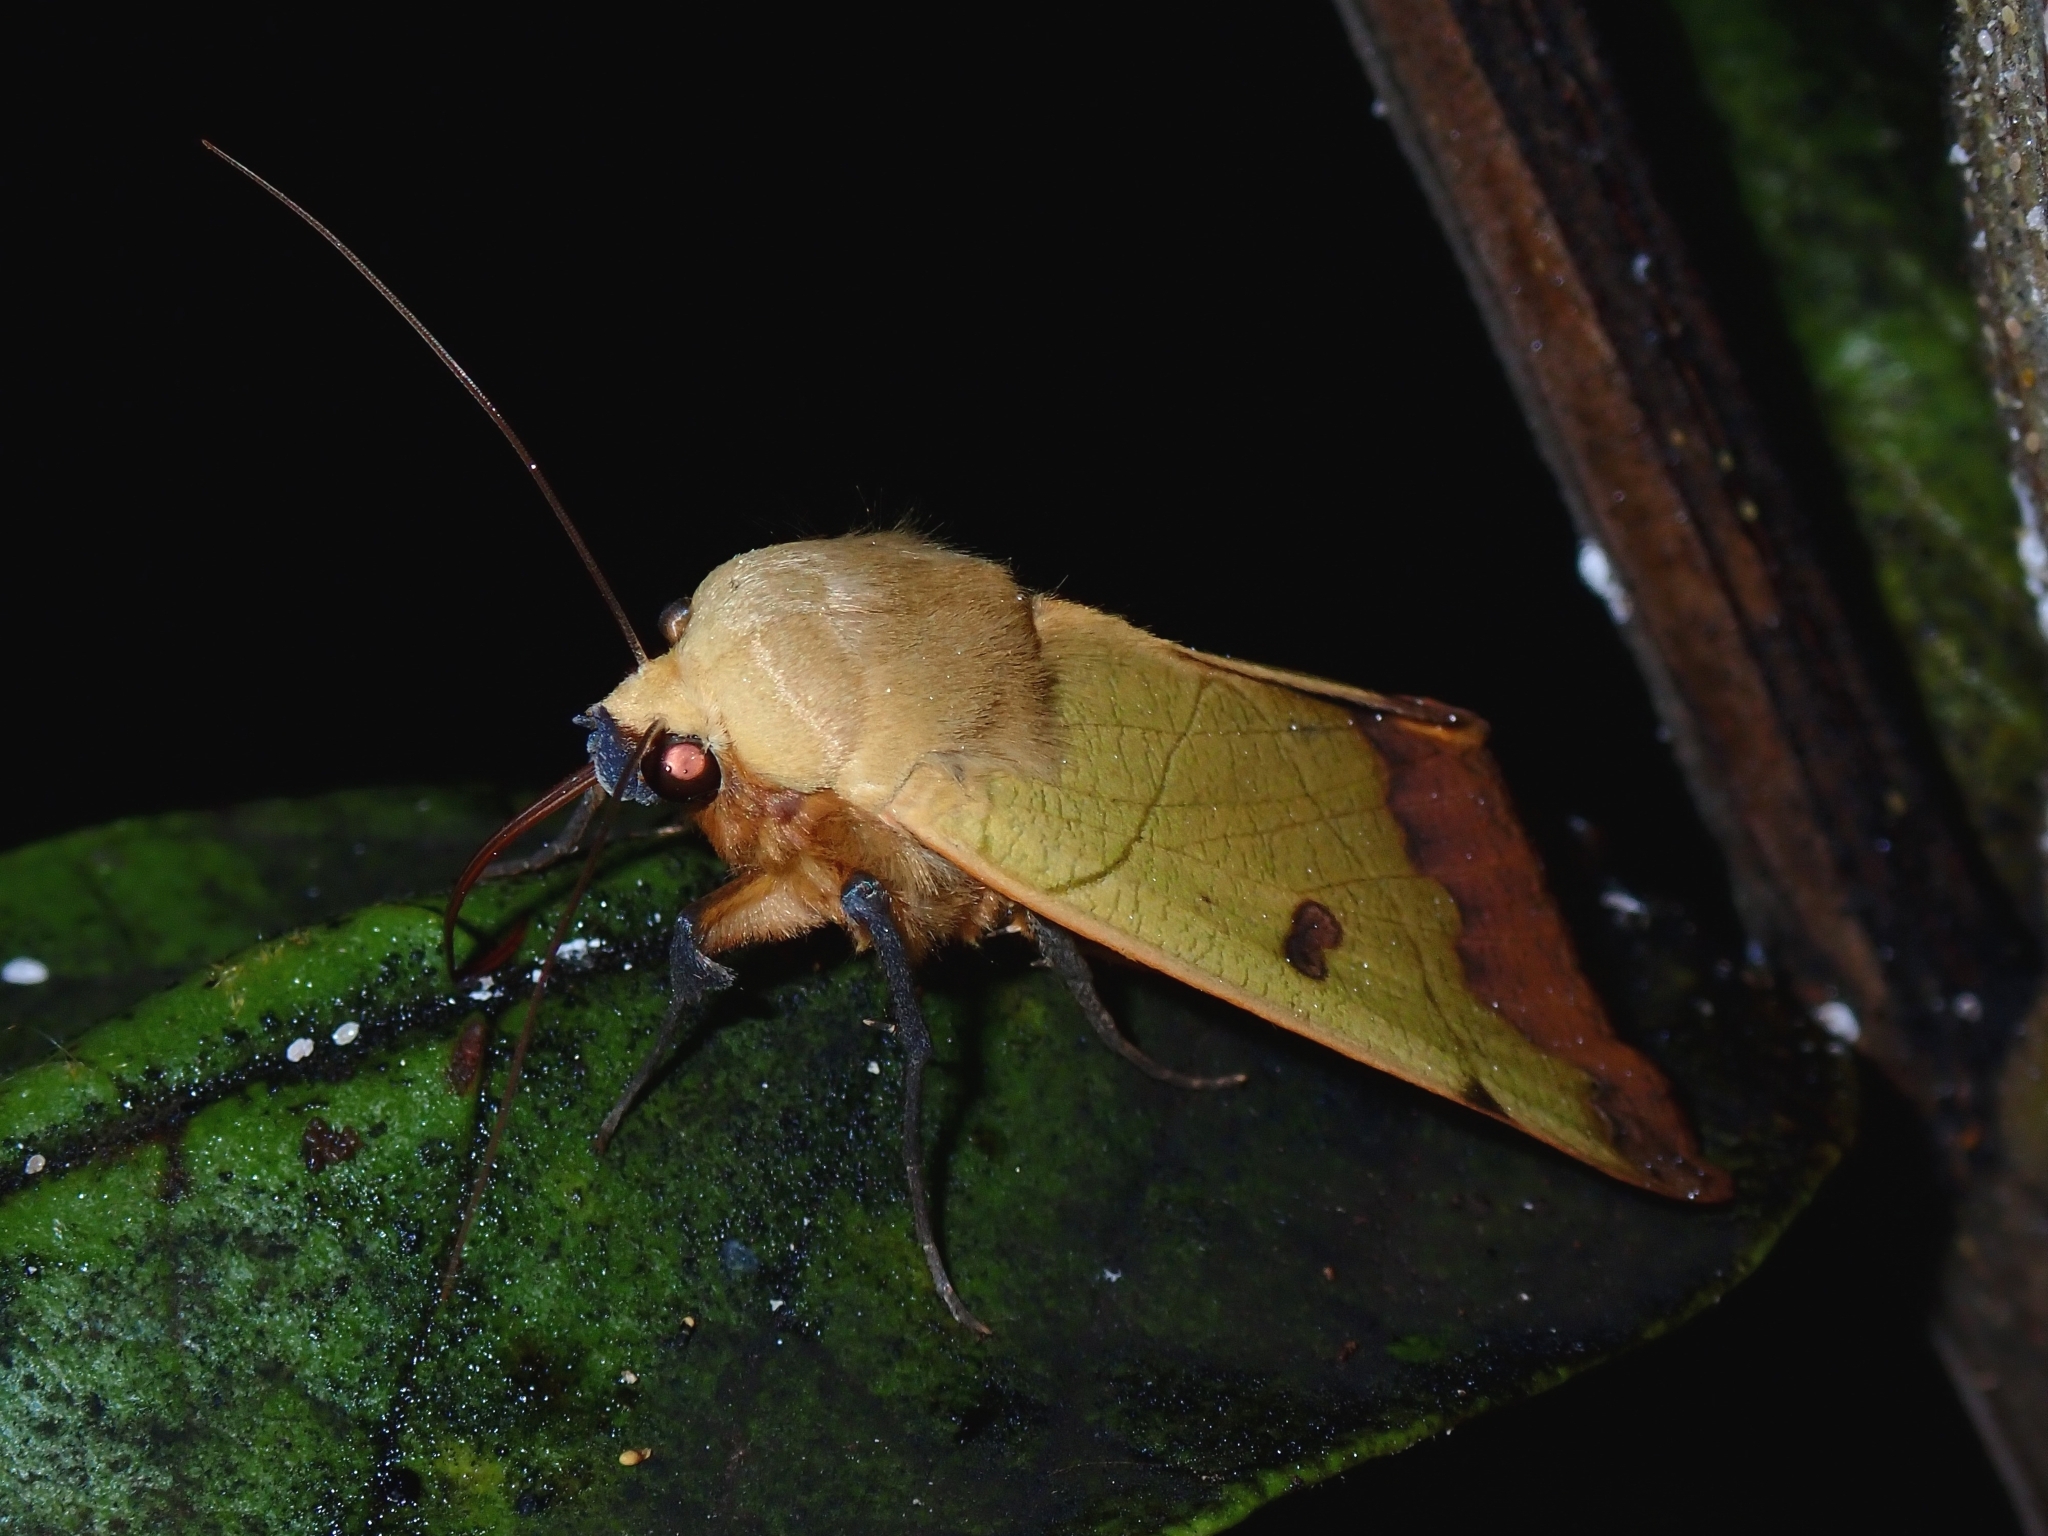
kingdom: Animalia
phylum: Arthropoda
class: Insecta
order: Lepidoptera
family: Erebidae
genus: Ophiusa
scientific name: Ophiusa tirhaca
